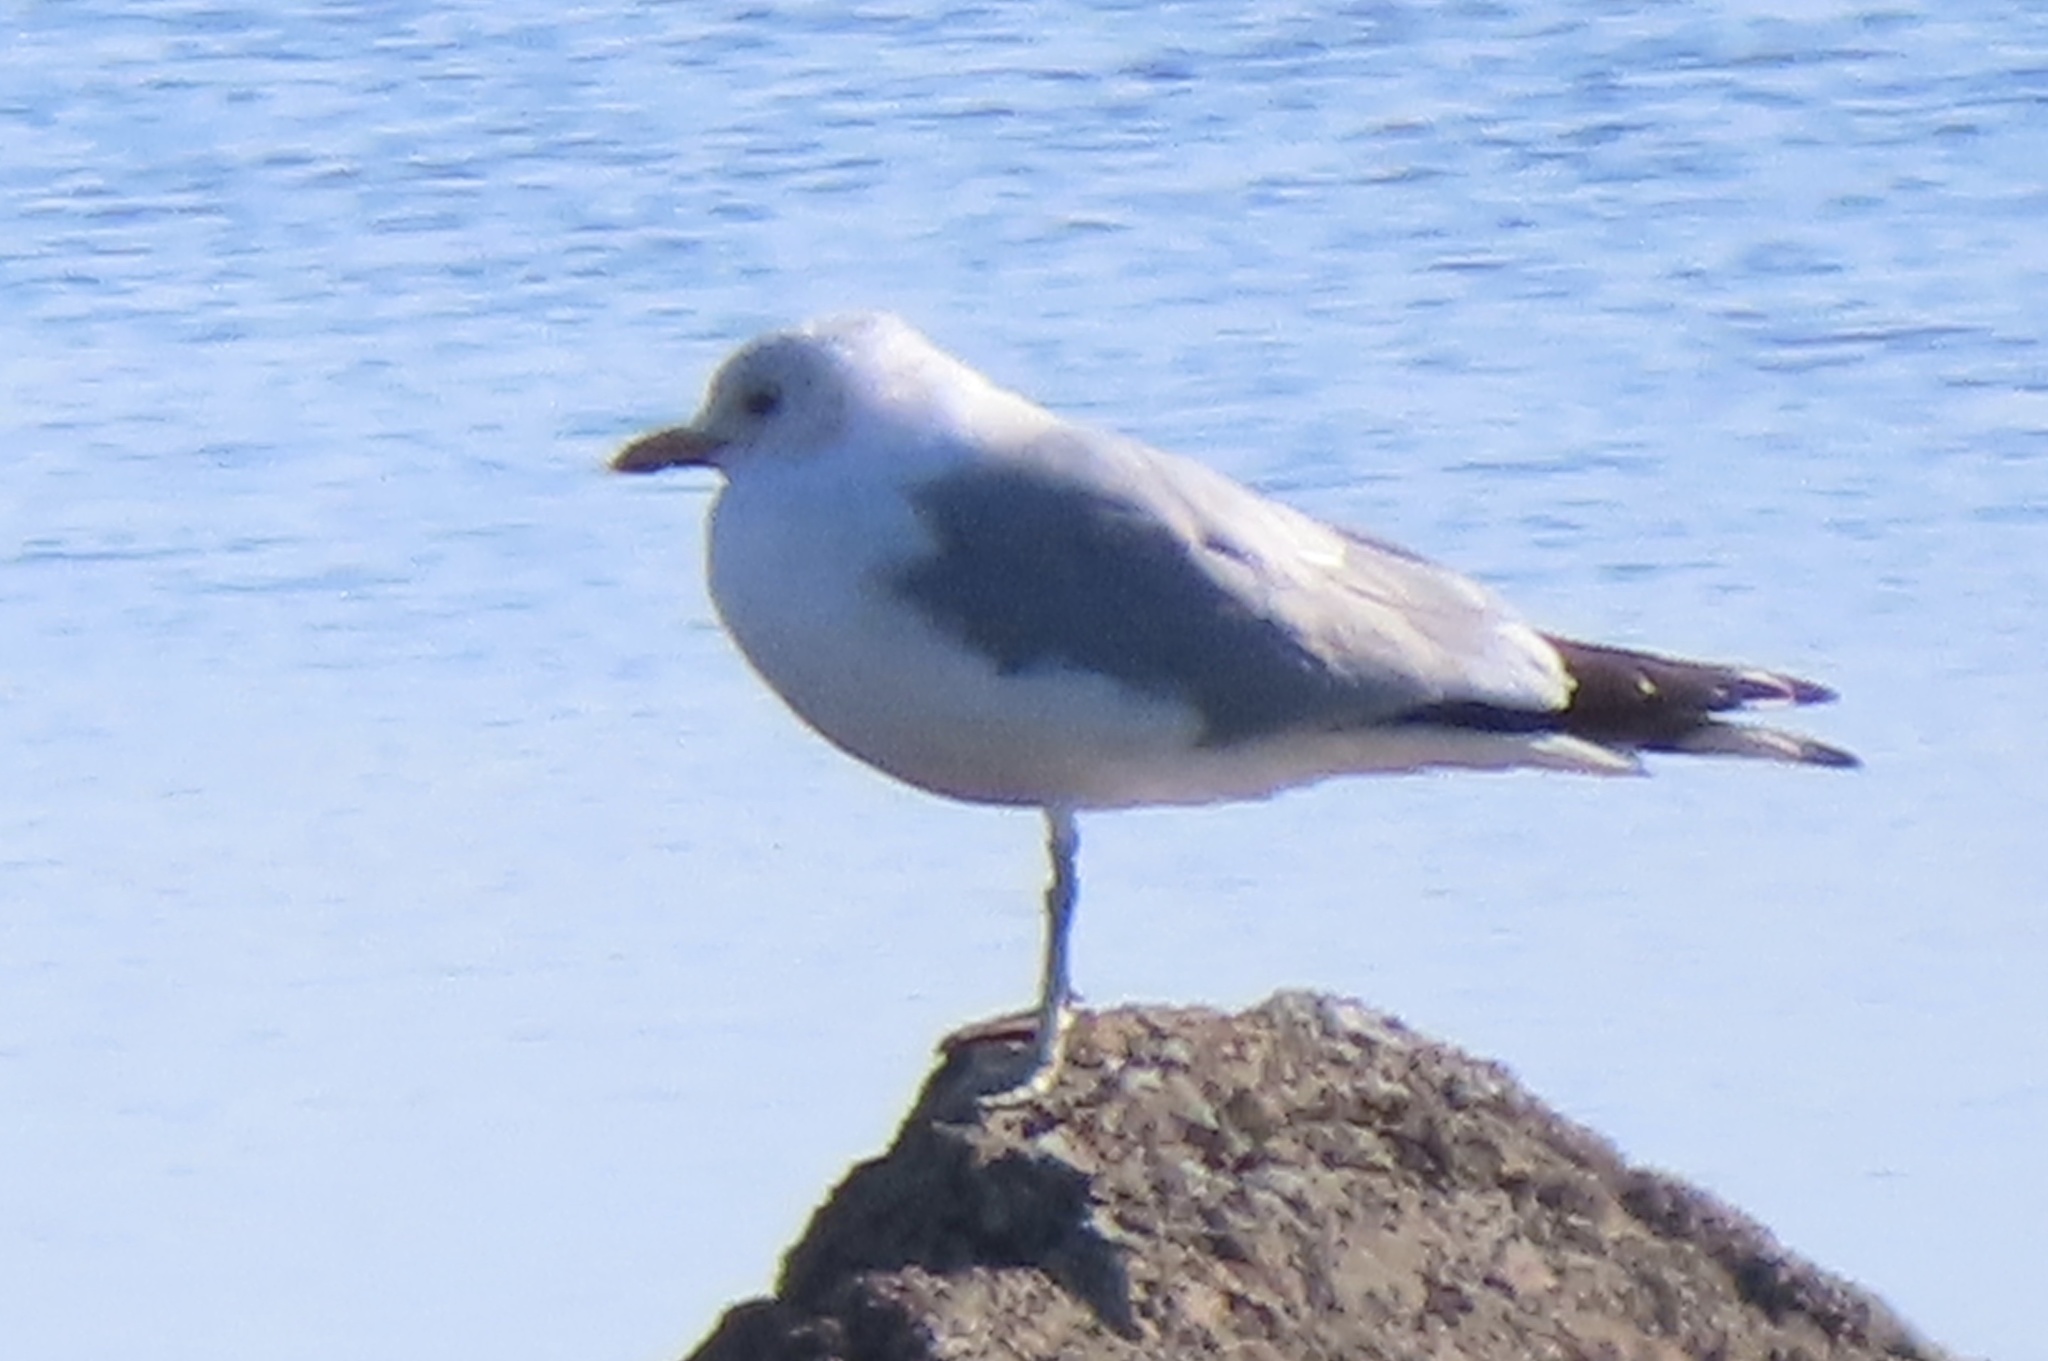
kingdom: Animalia
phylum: Chordata
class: Aves
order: Charadriiformes
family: Laridae
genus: Larus
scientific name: Larus canus
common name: Mew gull
